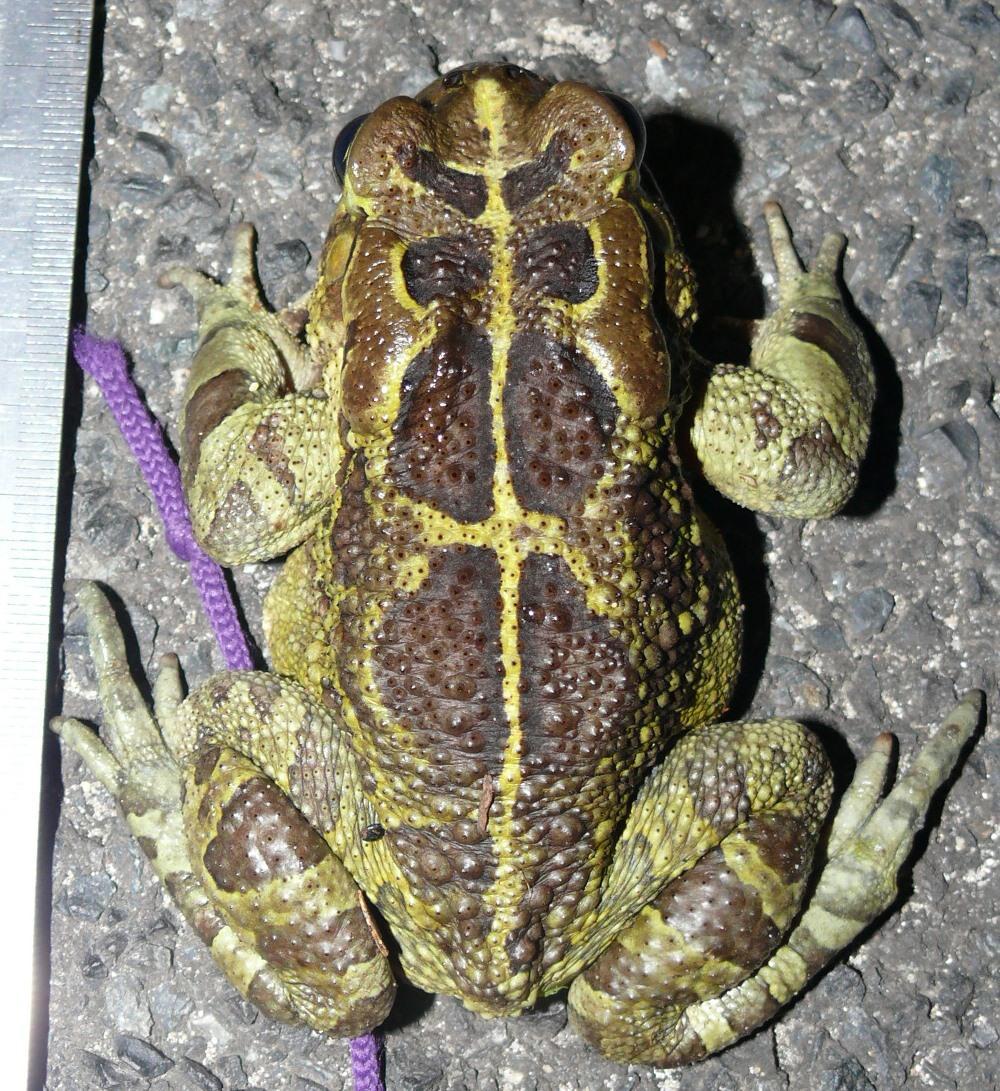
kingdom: Animalia
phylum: Chordata
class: Amphibia
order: Anura
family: Bufonidae
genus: Sclerophrys
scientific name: Sclerophrys pantherina
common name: Panther toad
